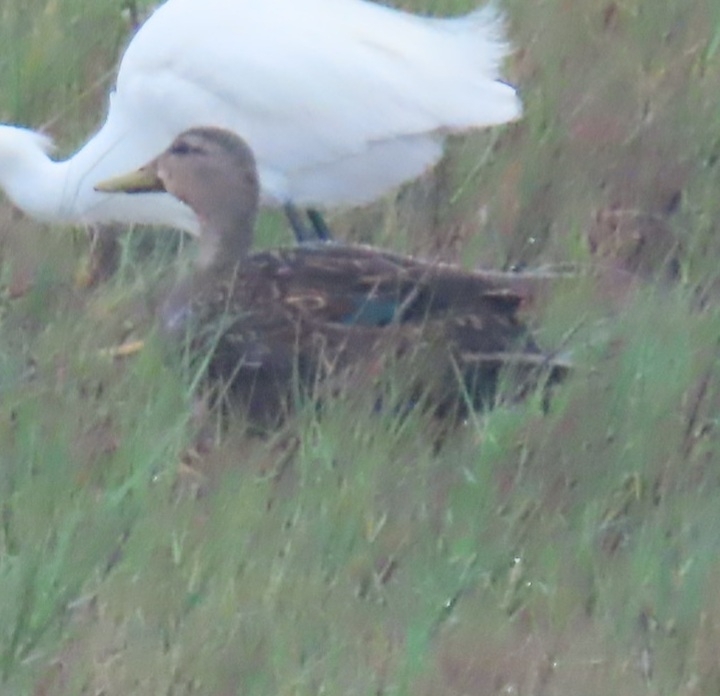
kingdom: Animalia
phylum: Chordata
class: Aves
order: Anseriformes
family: Anatidae
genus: Anas
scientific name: Anas fulvigula
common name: Mottled duck
